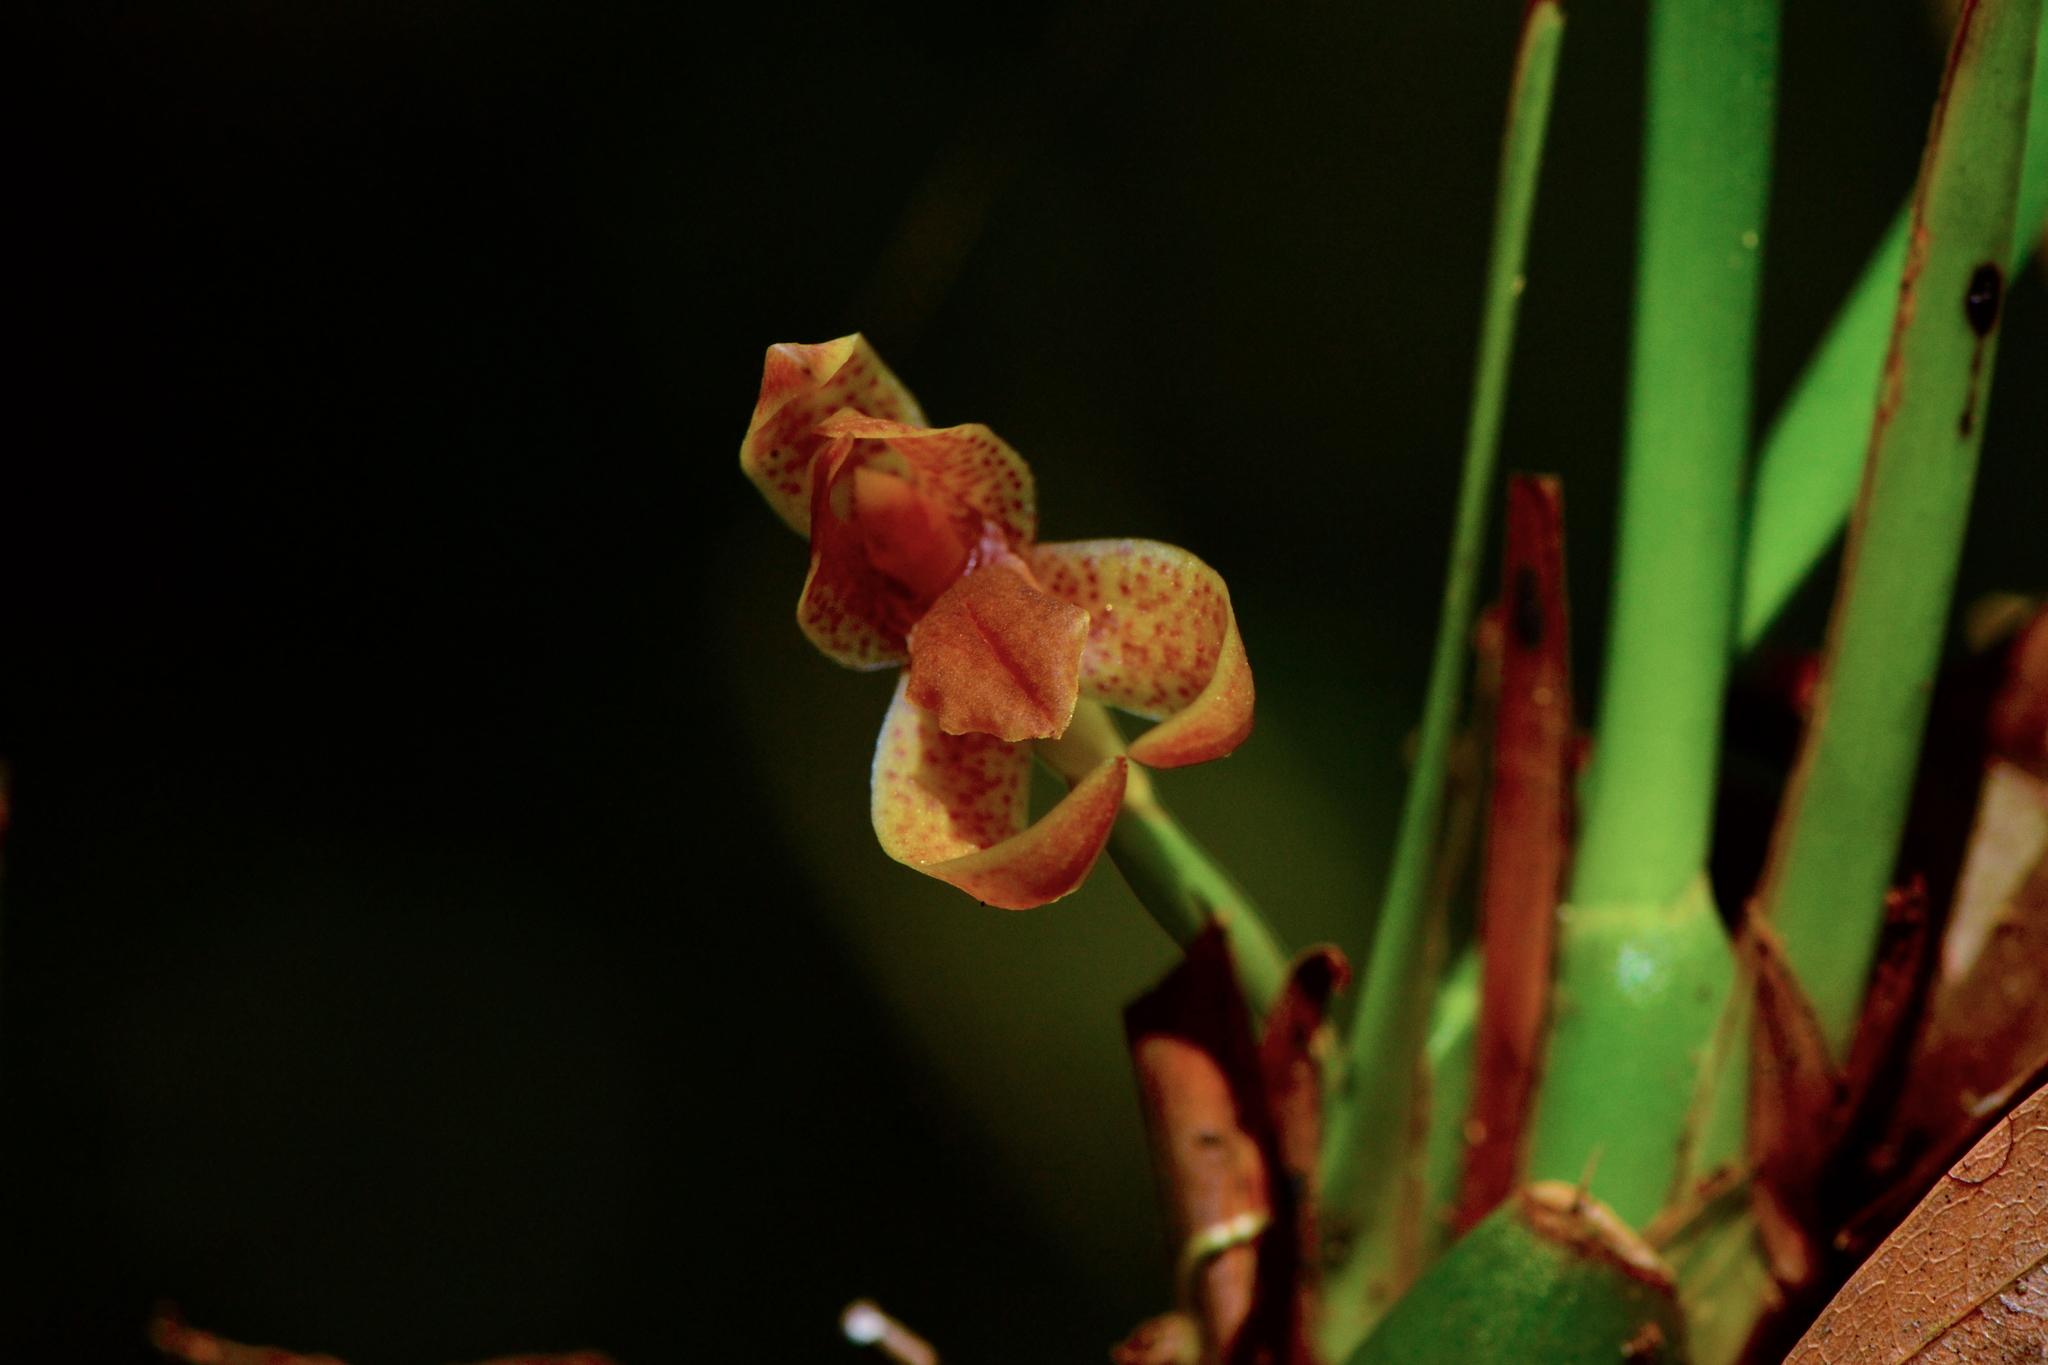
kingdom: Plantae
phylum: Tracheophyta
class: Liliopsida
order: Asparagales
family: Orchidaceae
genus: Maxillaria
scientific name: Maxillaria meleagris
